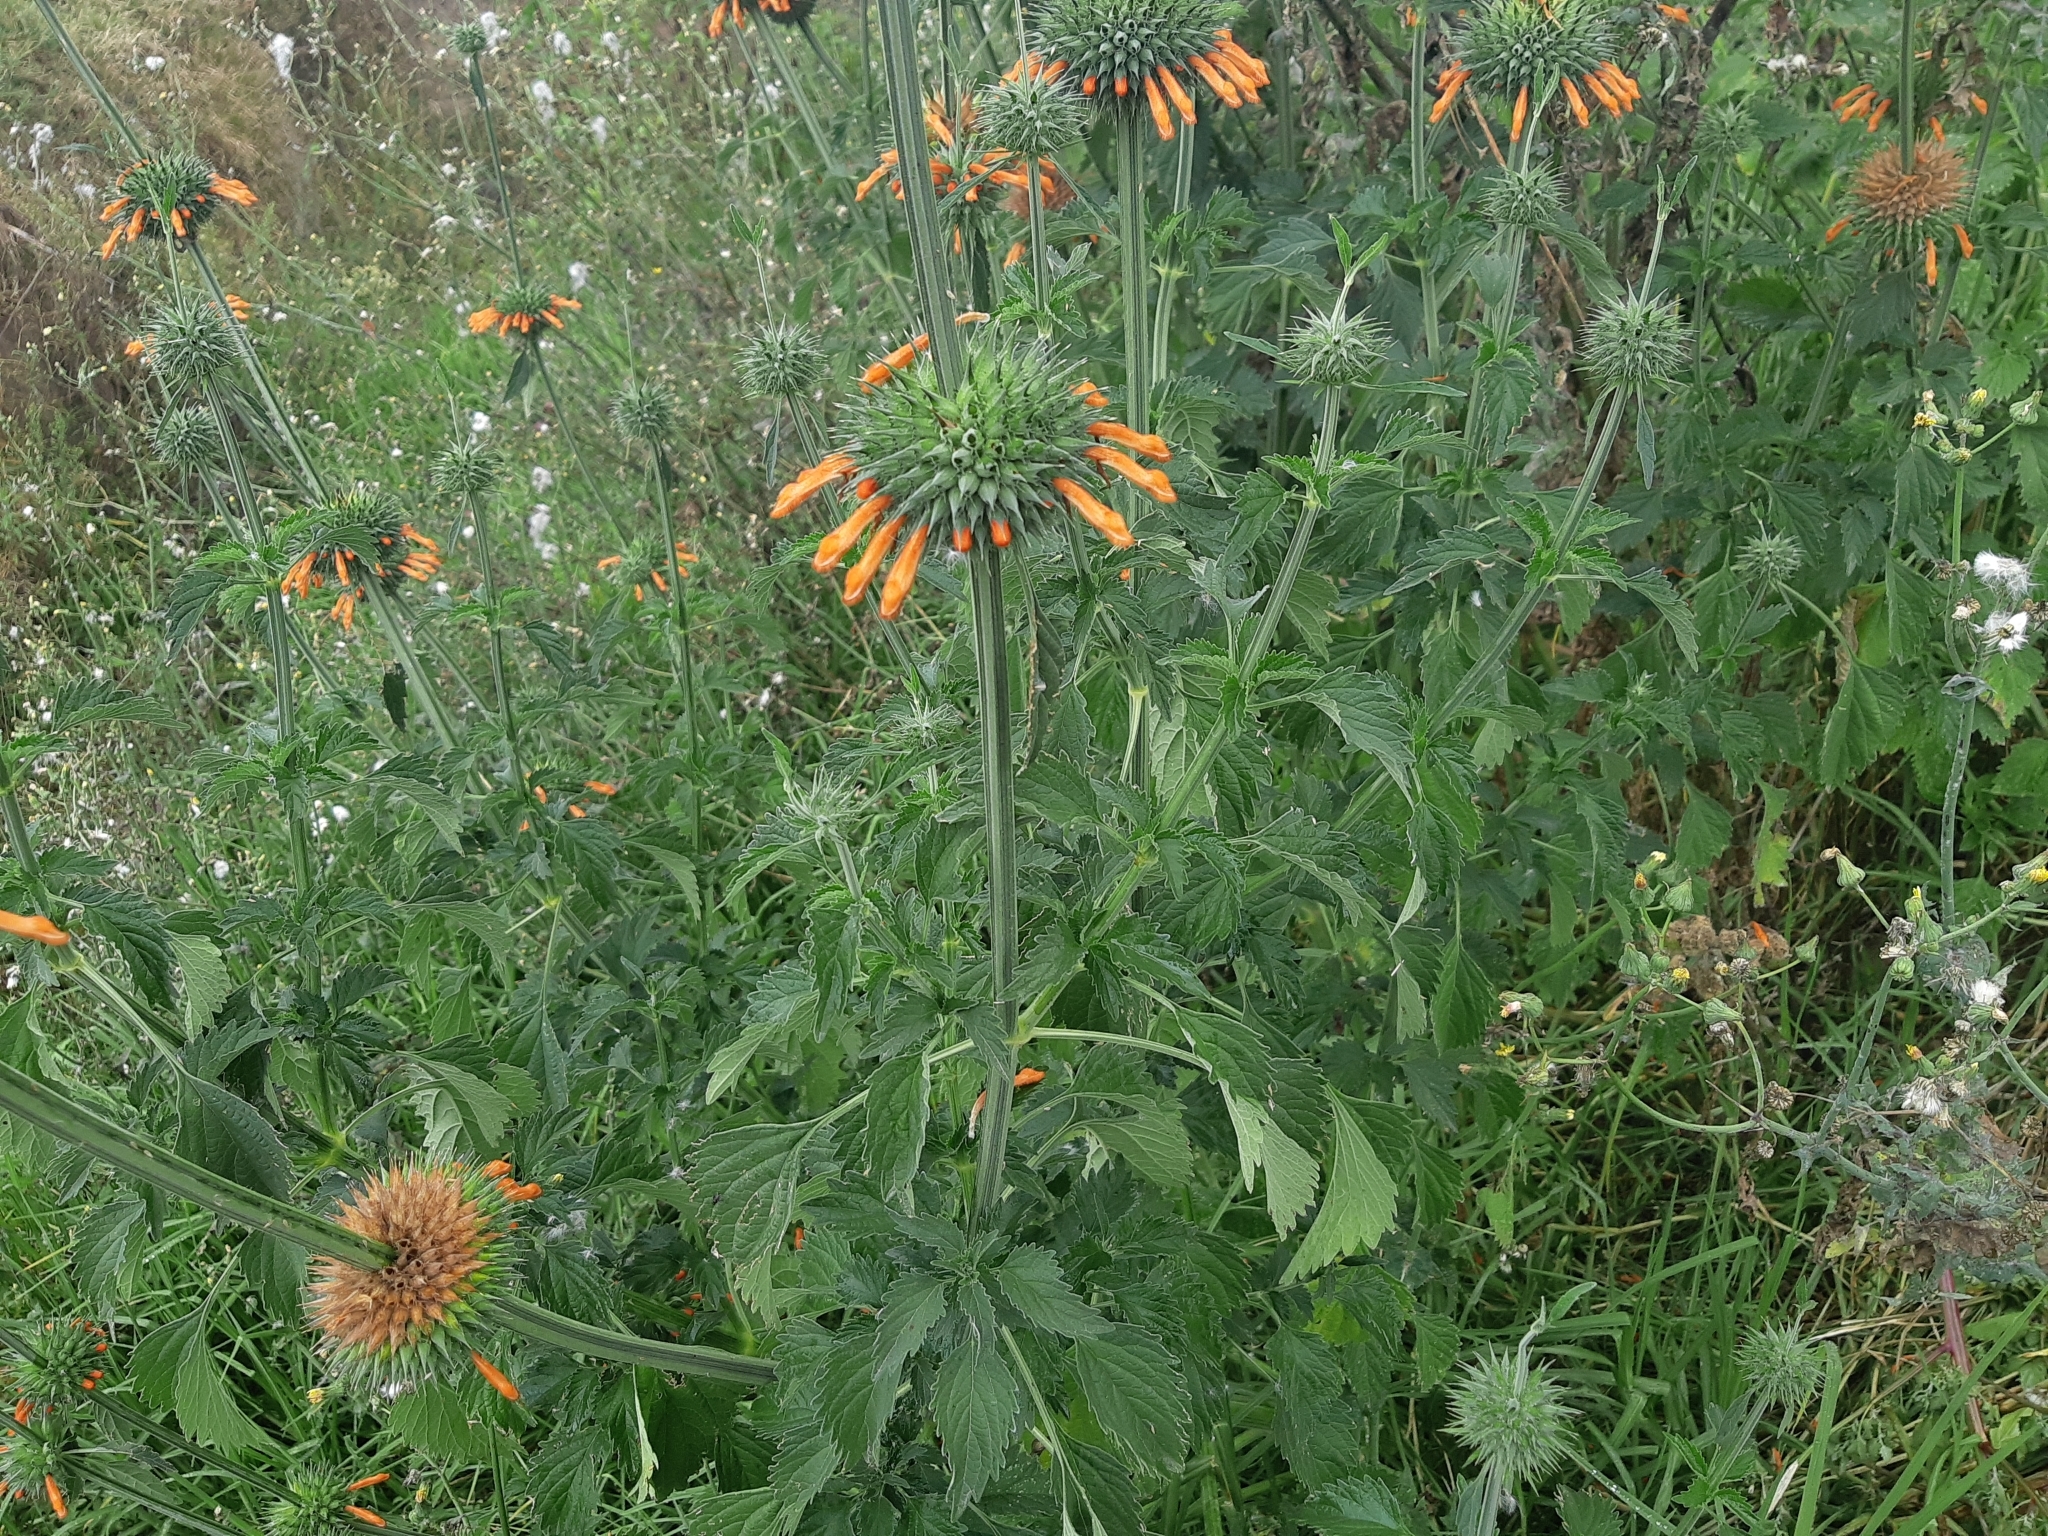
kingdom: Plantae
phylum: Tracheophyta
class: Magnoliopsida
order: Lamiales
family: Lamiaceae
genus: Leonotis
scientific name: Leonotis nepetifolia
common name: Christmas candlestick
